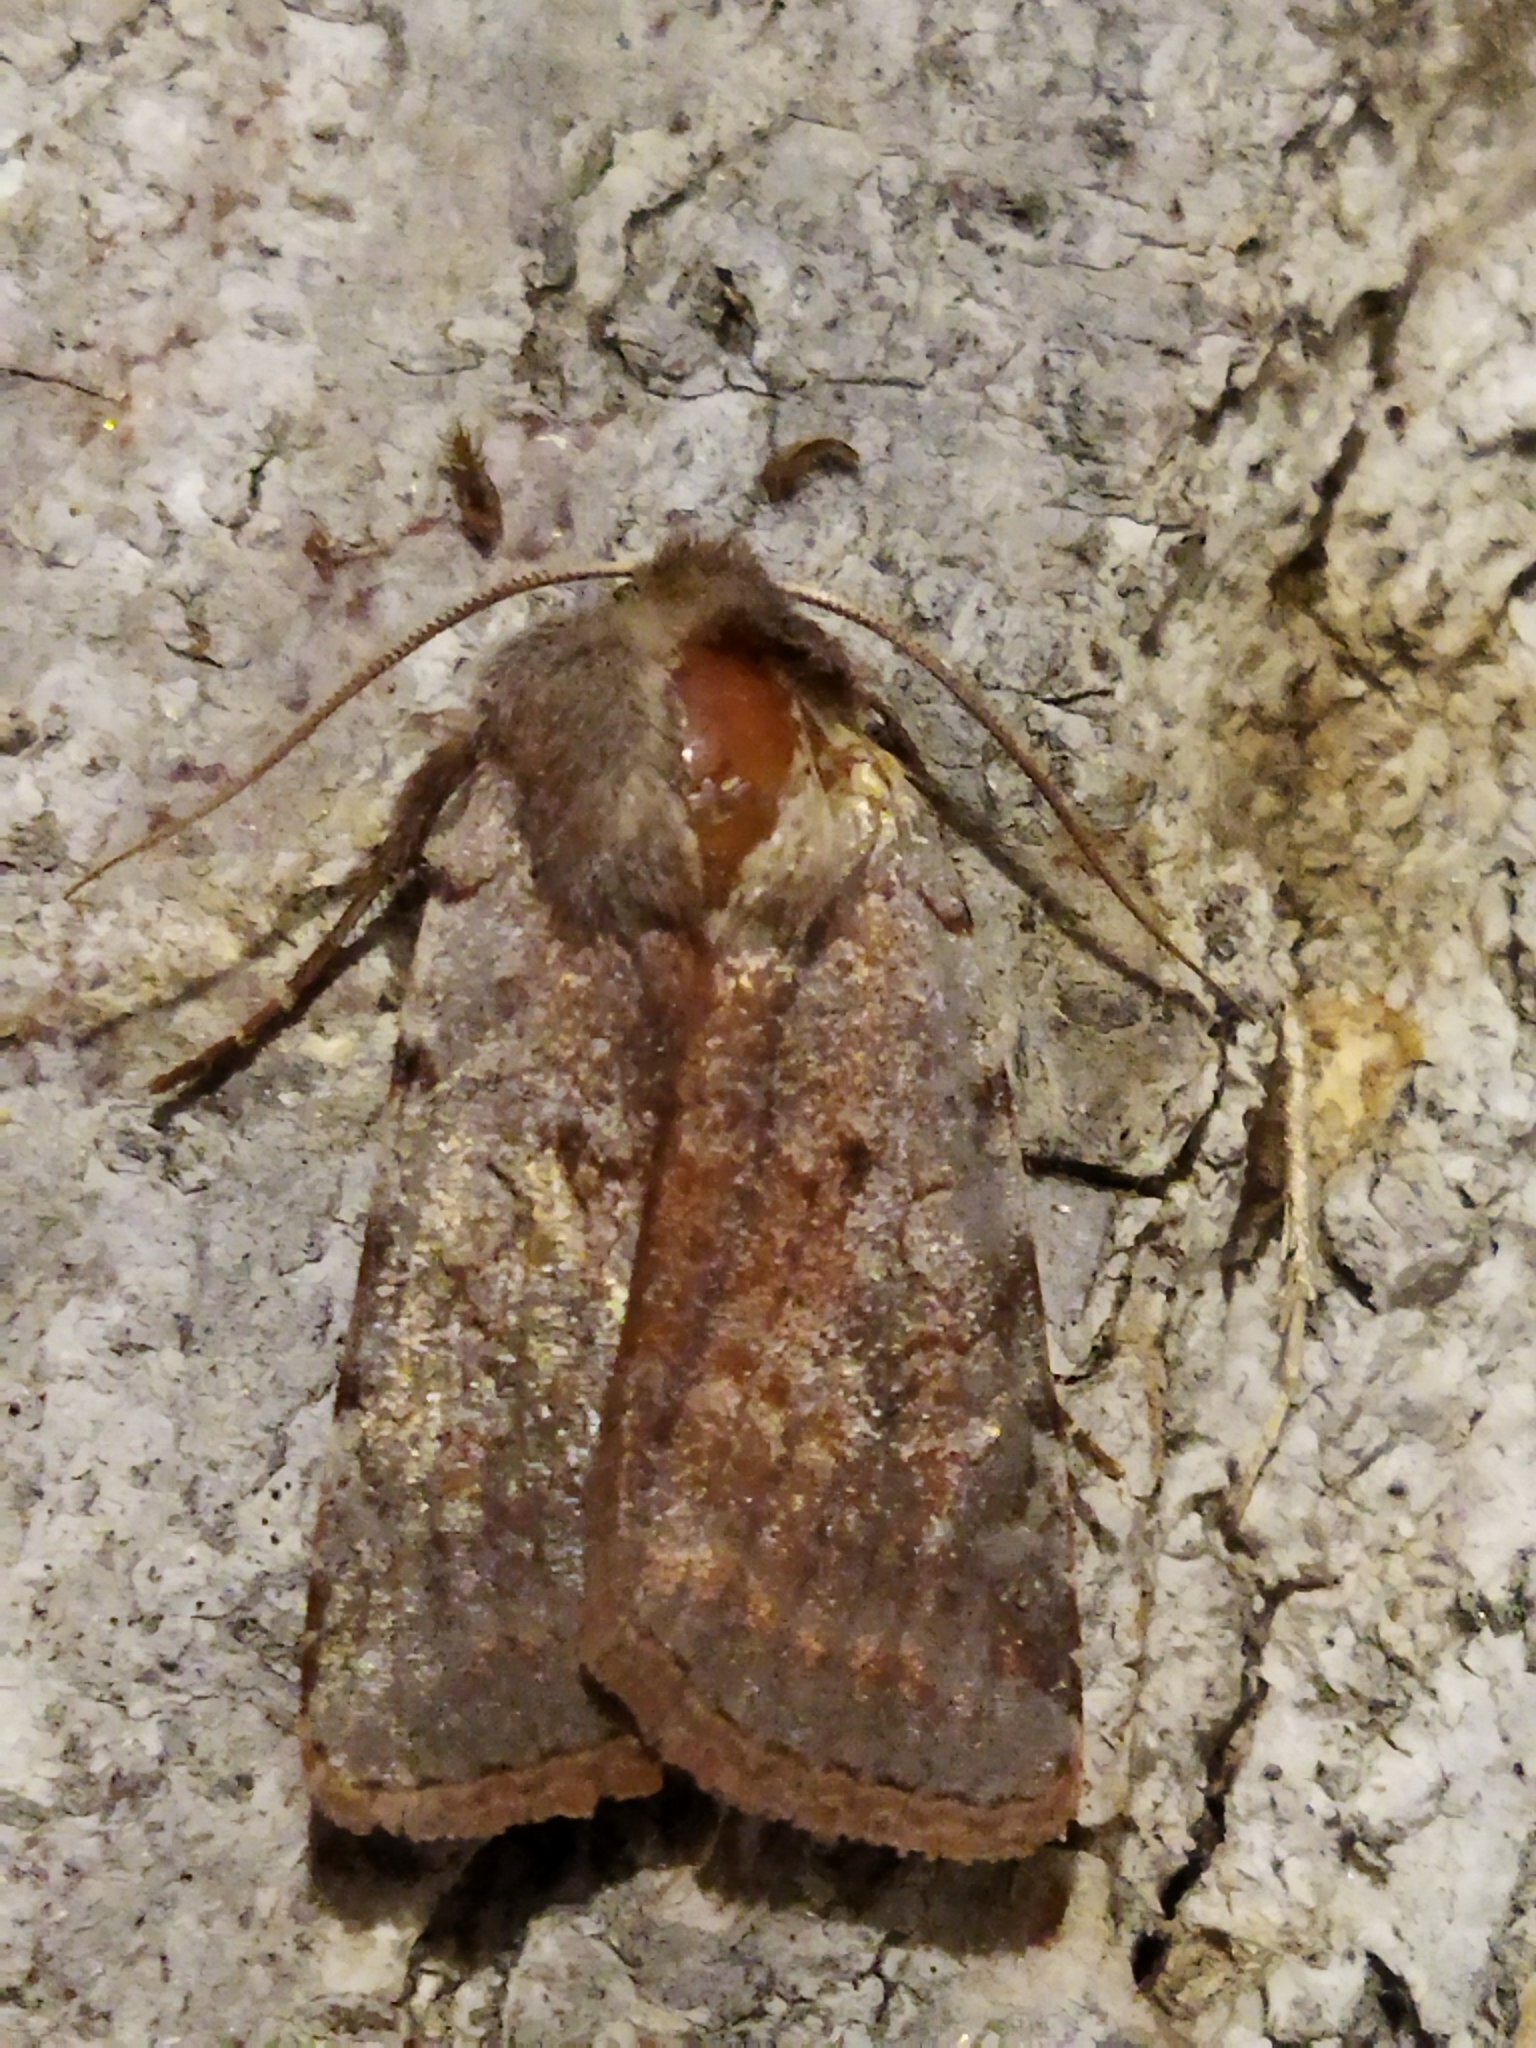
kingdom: Animalia
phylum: Arthropoda
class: Insecta
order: Lepidoptera
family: Noctuidae
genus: Cerastis
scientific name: Cerastis rubricosa
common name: Red chestnut
